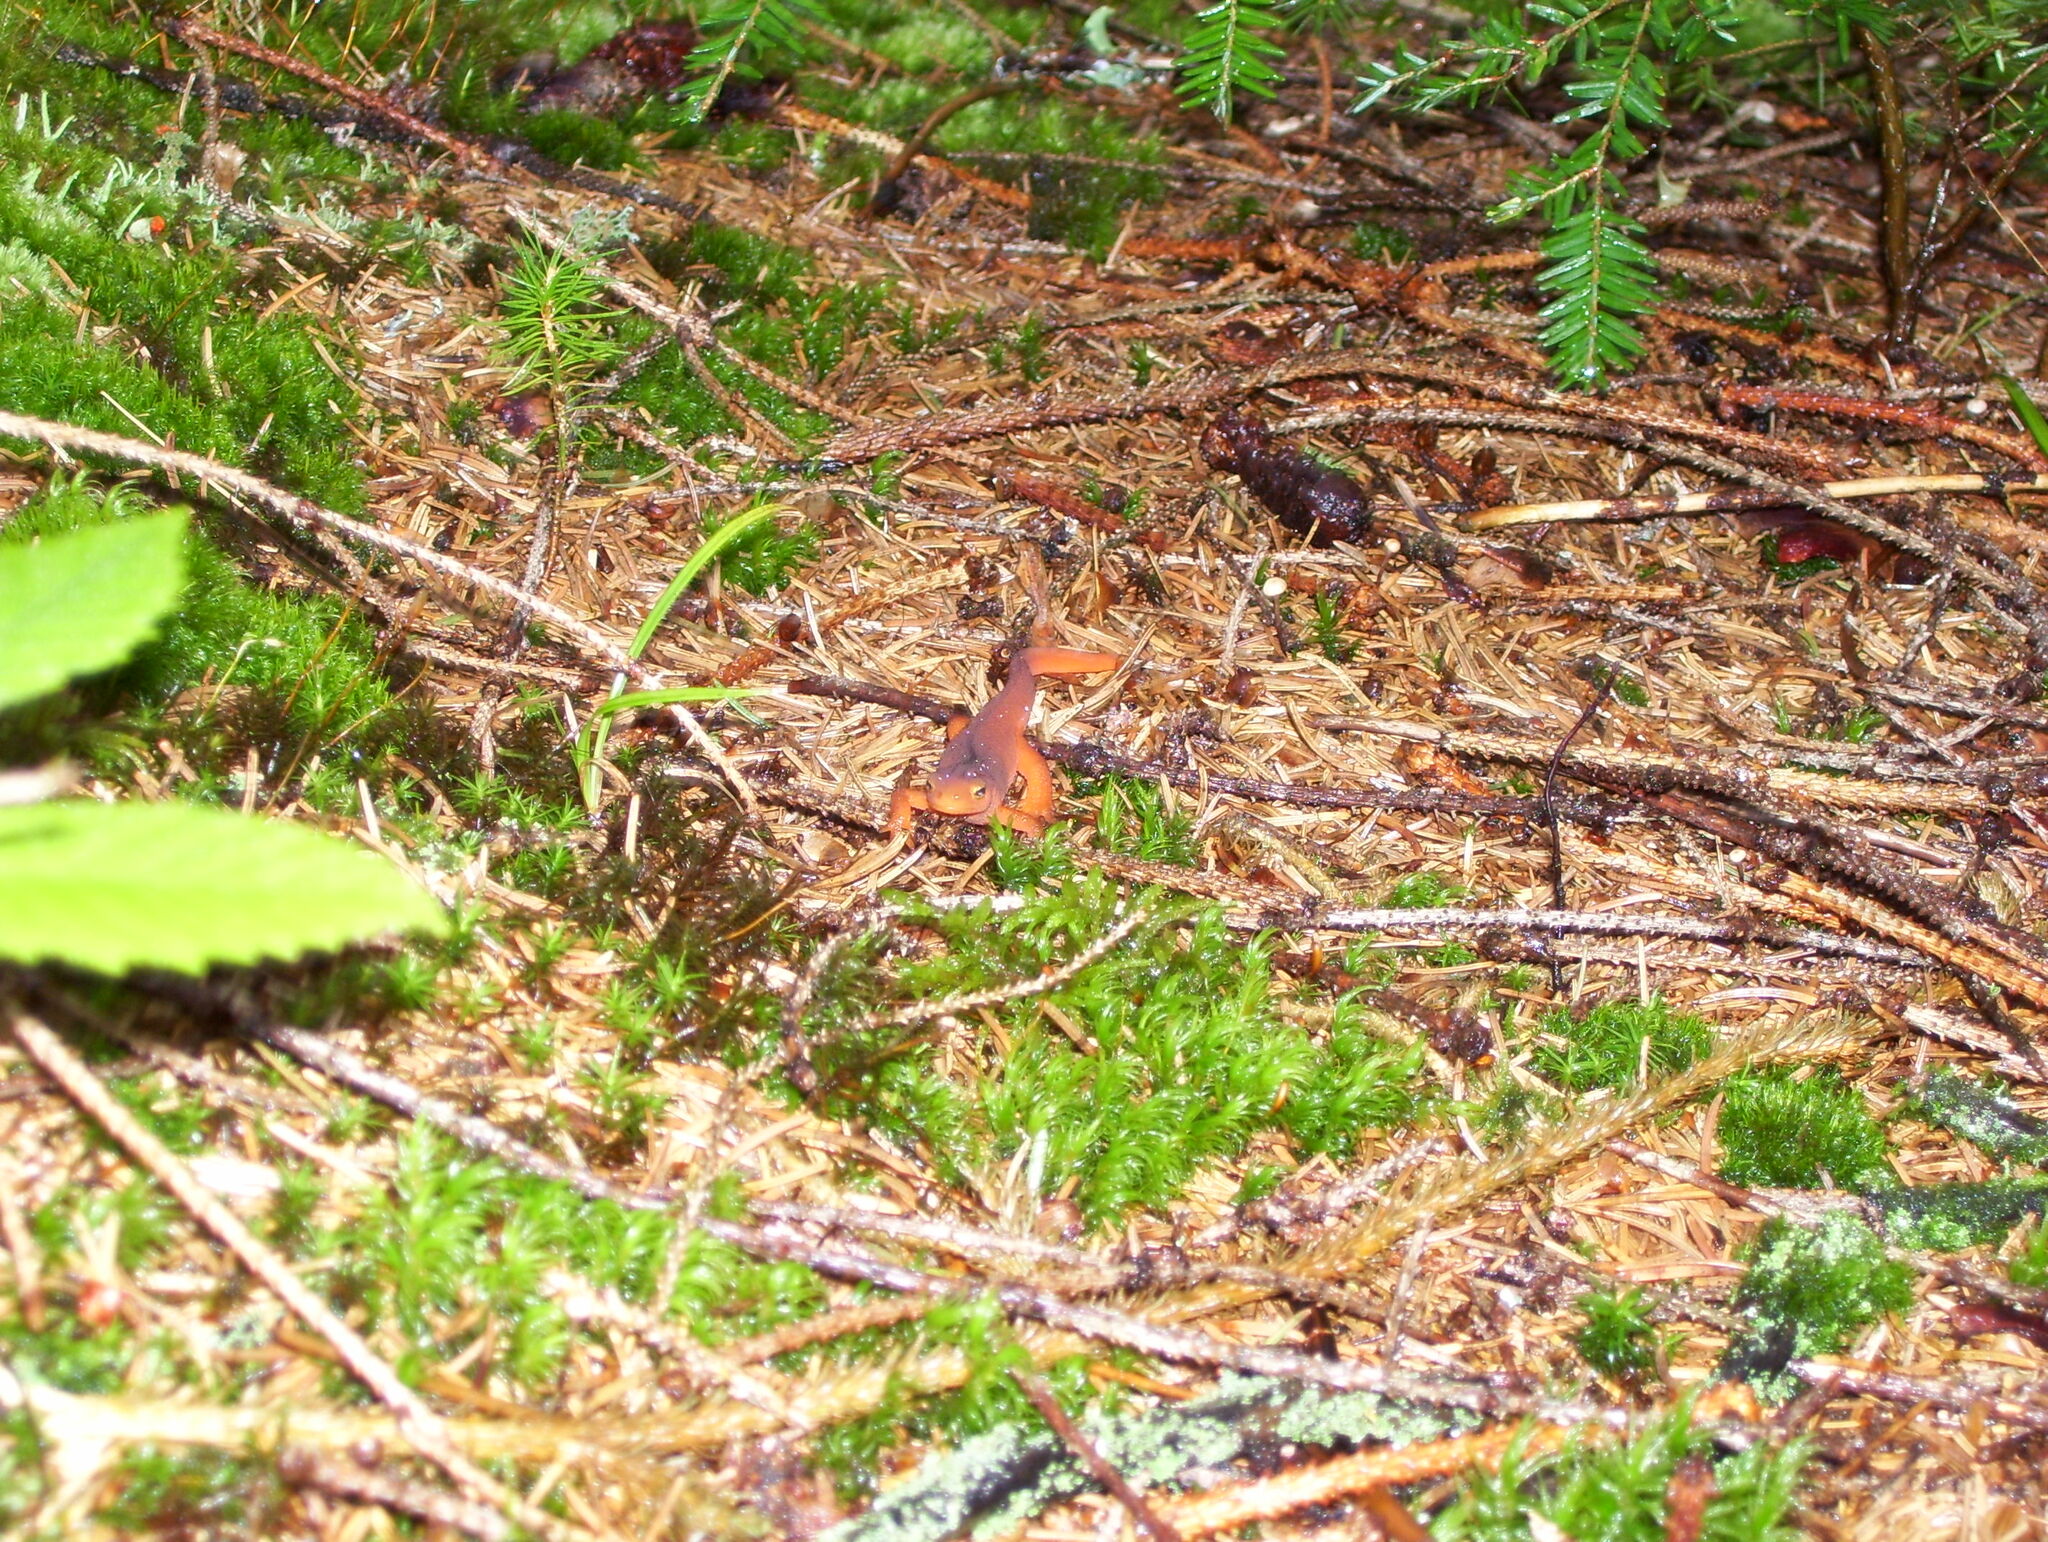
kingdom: Animalia
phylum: Chordata
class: Amphibia
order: Caudata
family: Salamandridae
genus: Notophthalmus
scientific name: Notophthalmus viridescens
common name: Eastern newt
